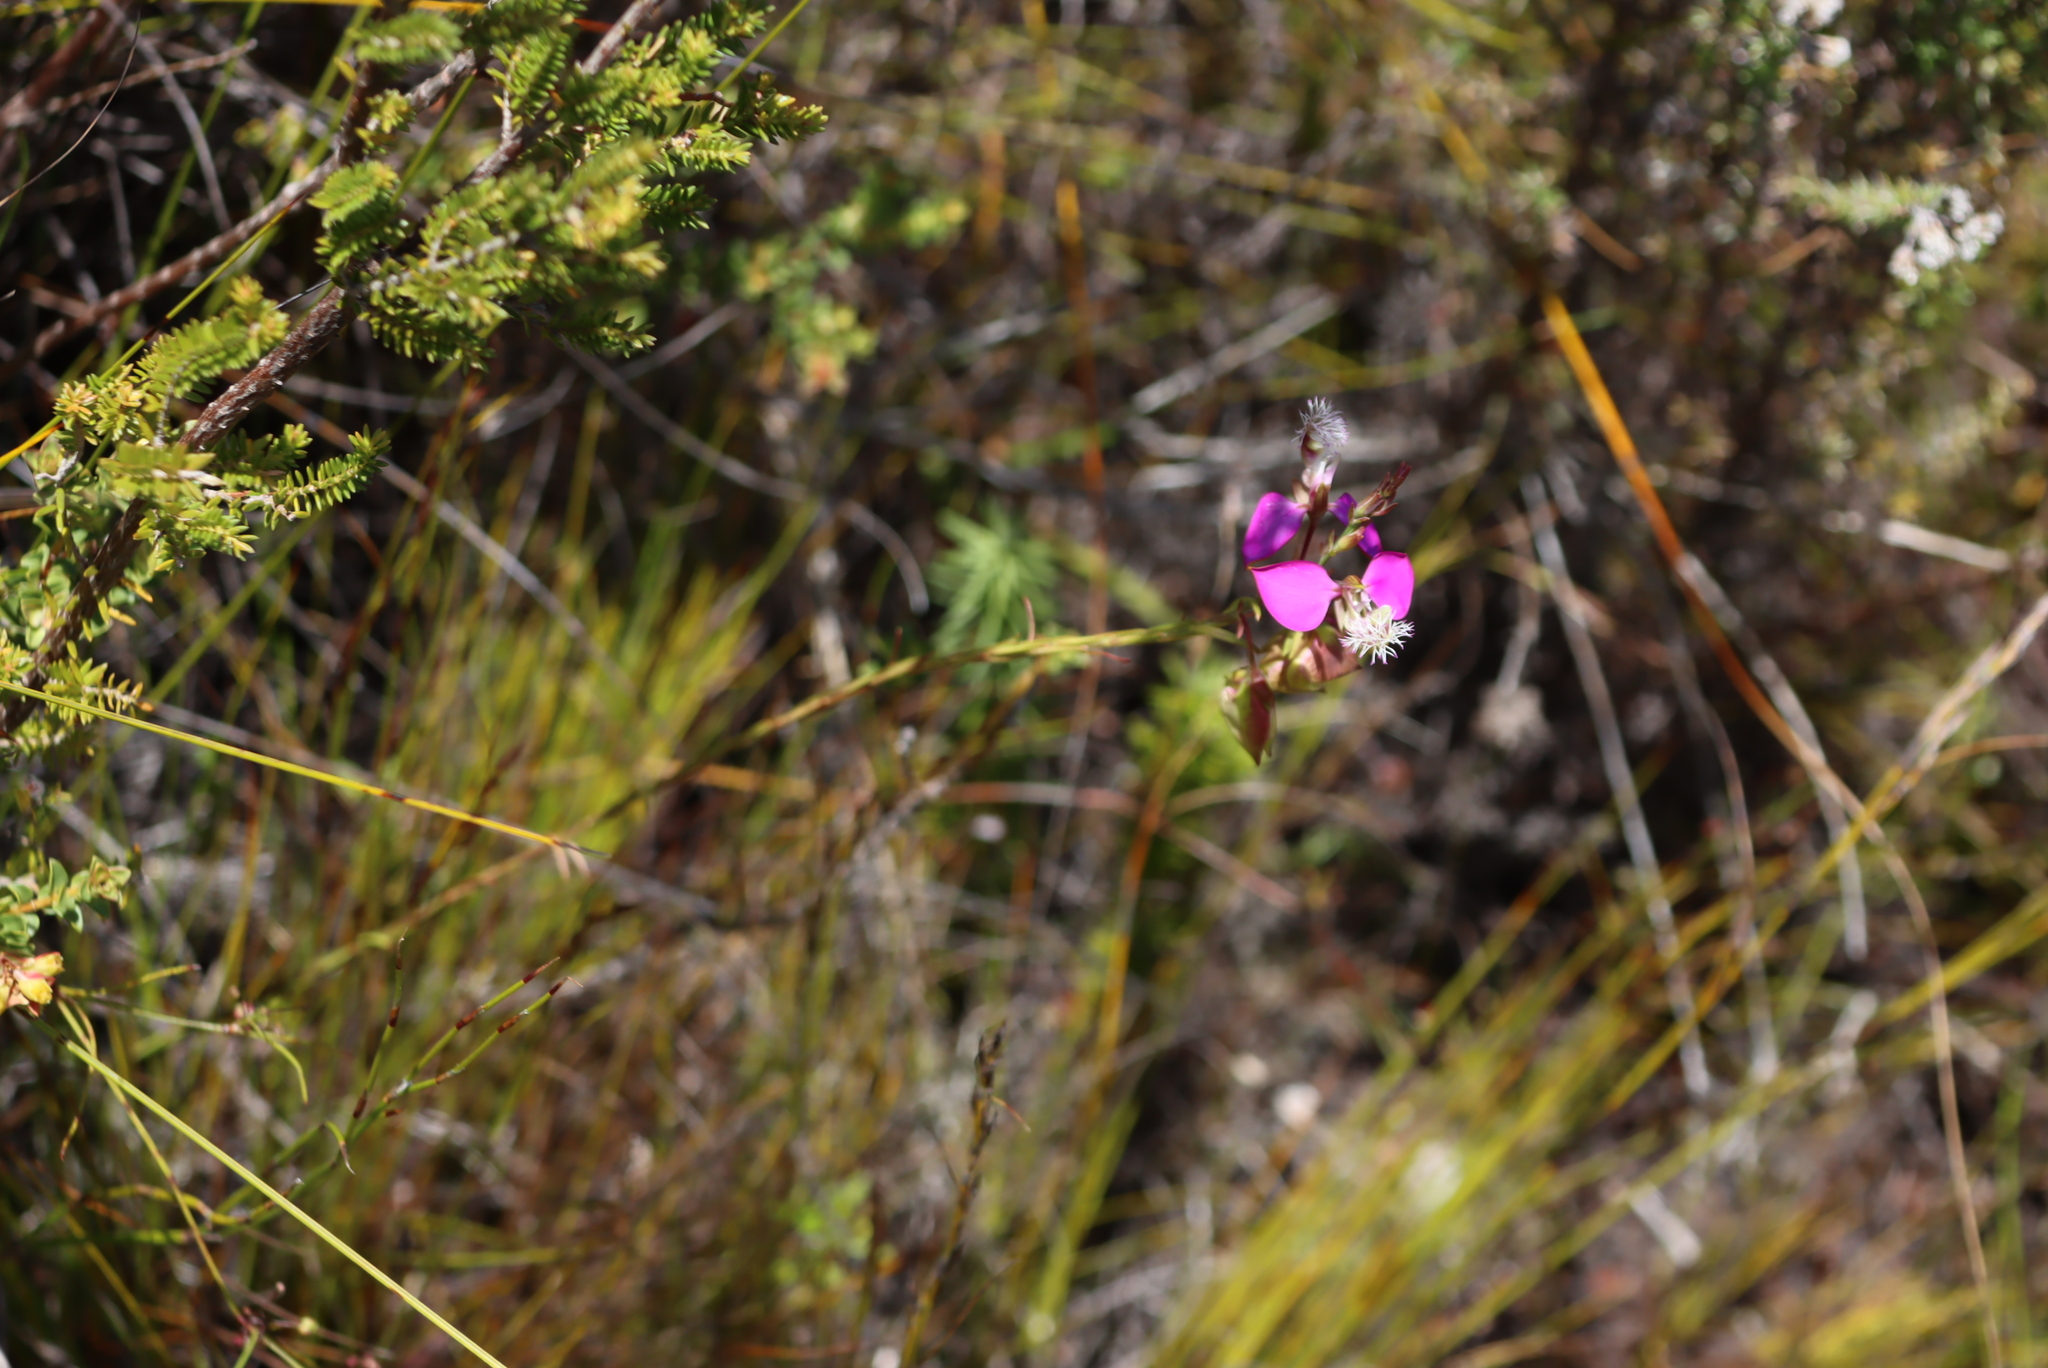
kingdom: Plantae
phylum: Tracheophyta
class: Magnoliopsida
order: Fabales
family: Polygalaceae
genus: Polygala
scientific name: Polygala bracteolata
